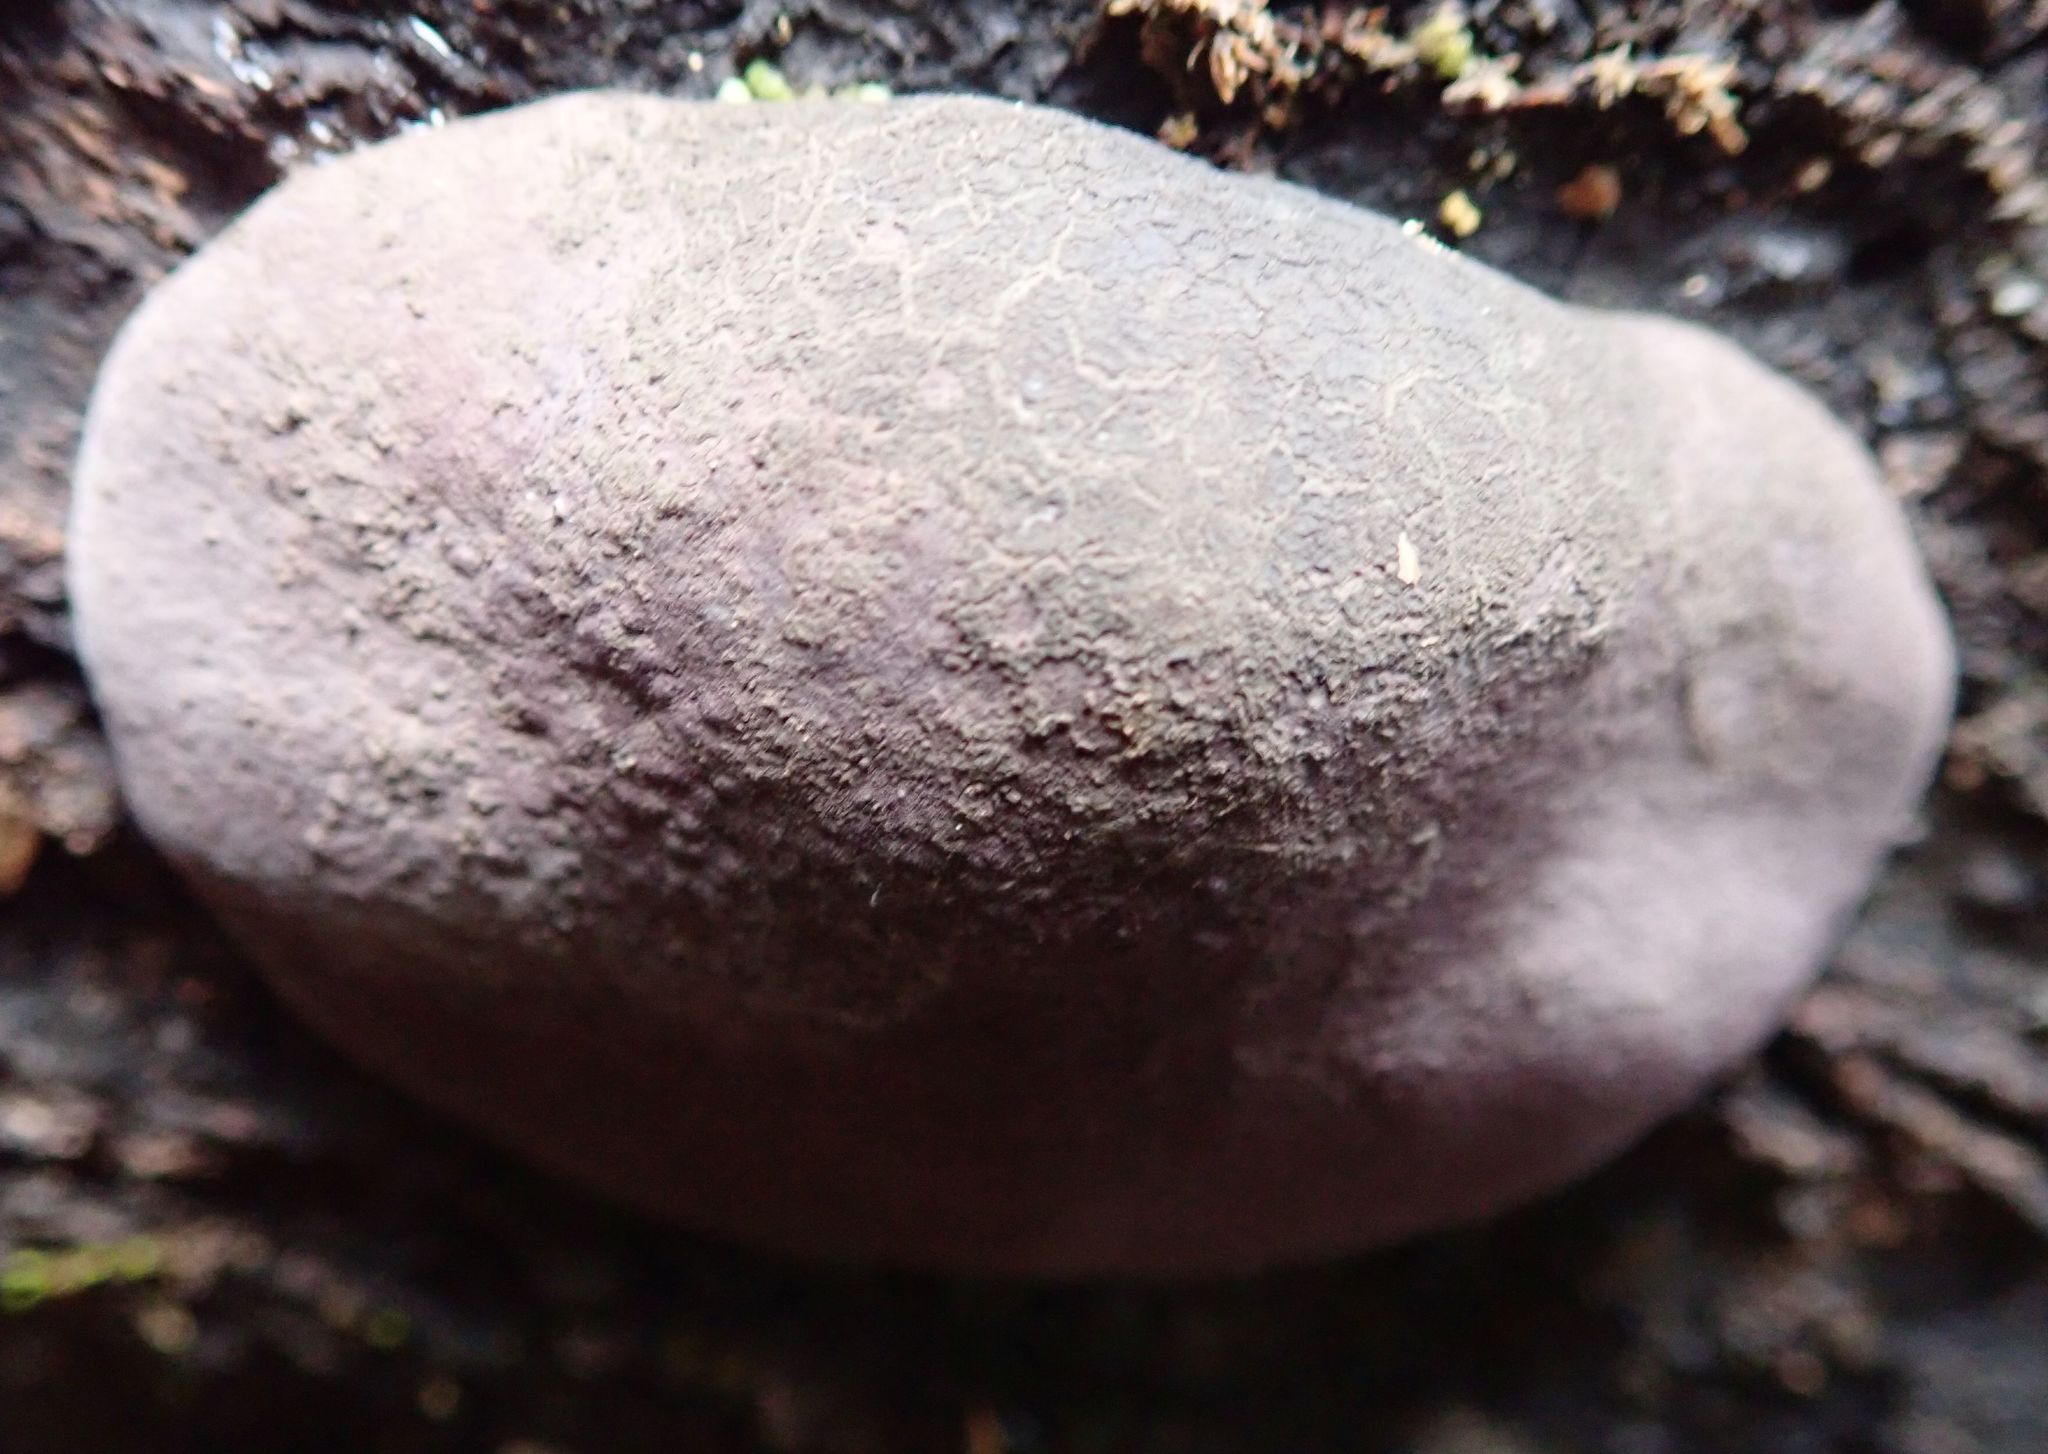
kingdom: Fungi
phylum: Ascomycota
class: Sordariomycetes
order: Xylariales
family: Hypoxylaceae
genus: Daldinia
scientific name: Daldinia
